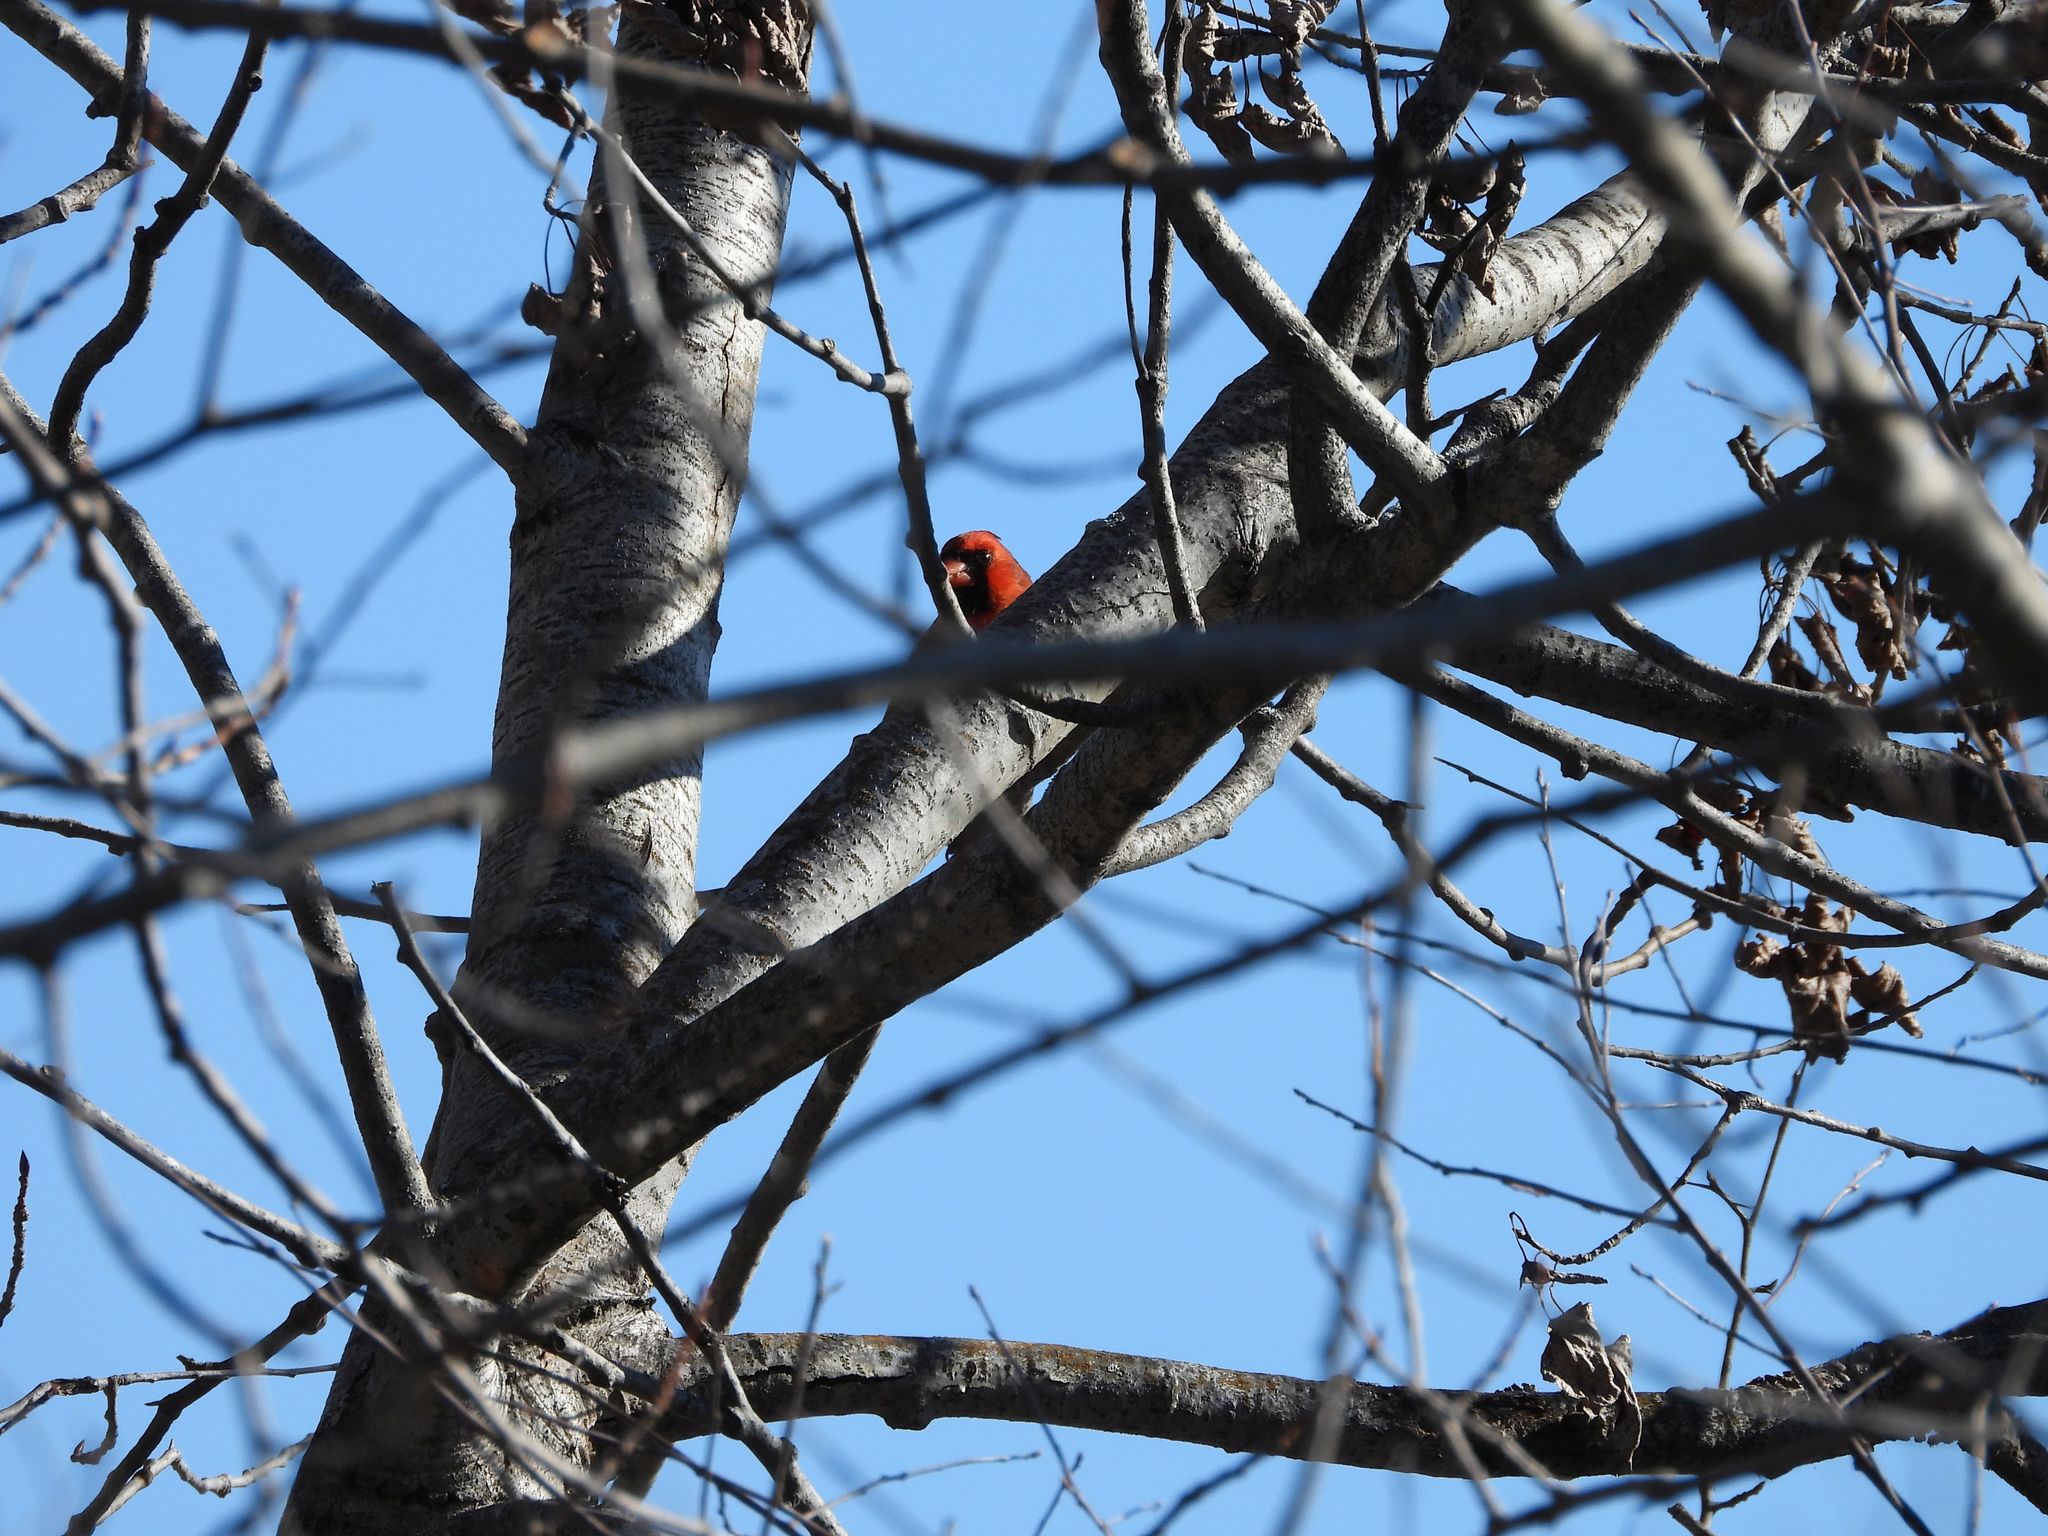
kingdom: Animalia
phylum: Chordata
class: Aves
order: Passeriformes
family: Cardinalidae
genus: Cardinalis
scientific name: Cardinalis cardinalis
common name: Northern cardinal
